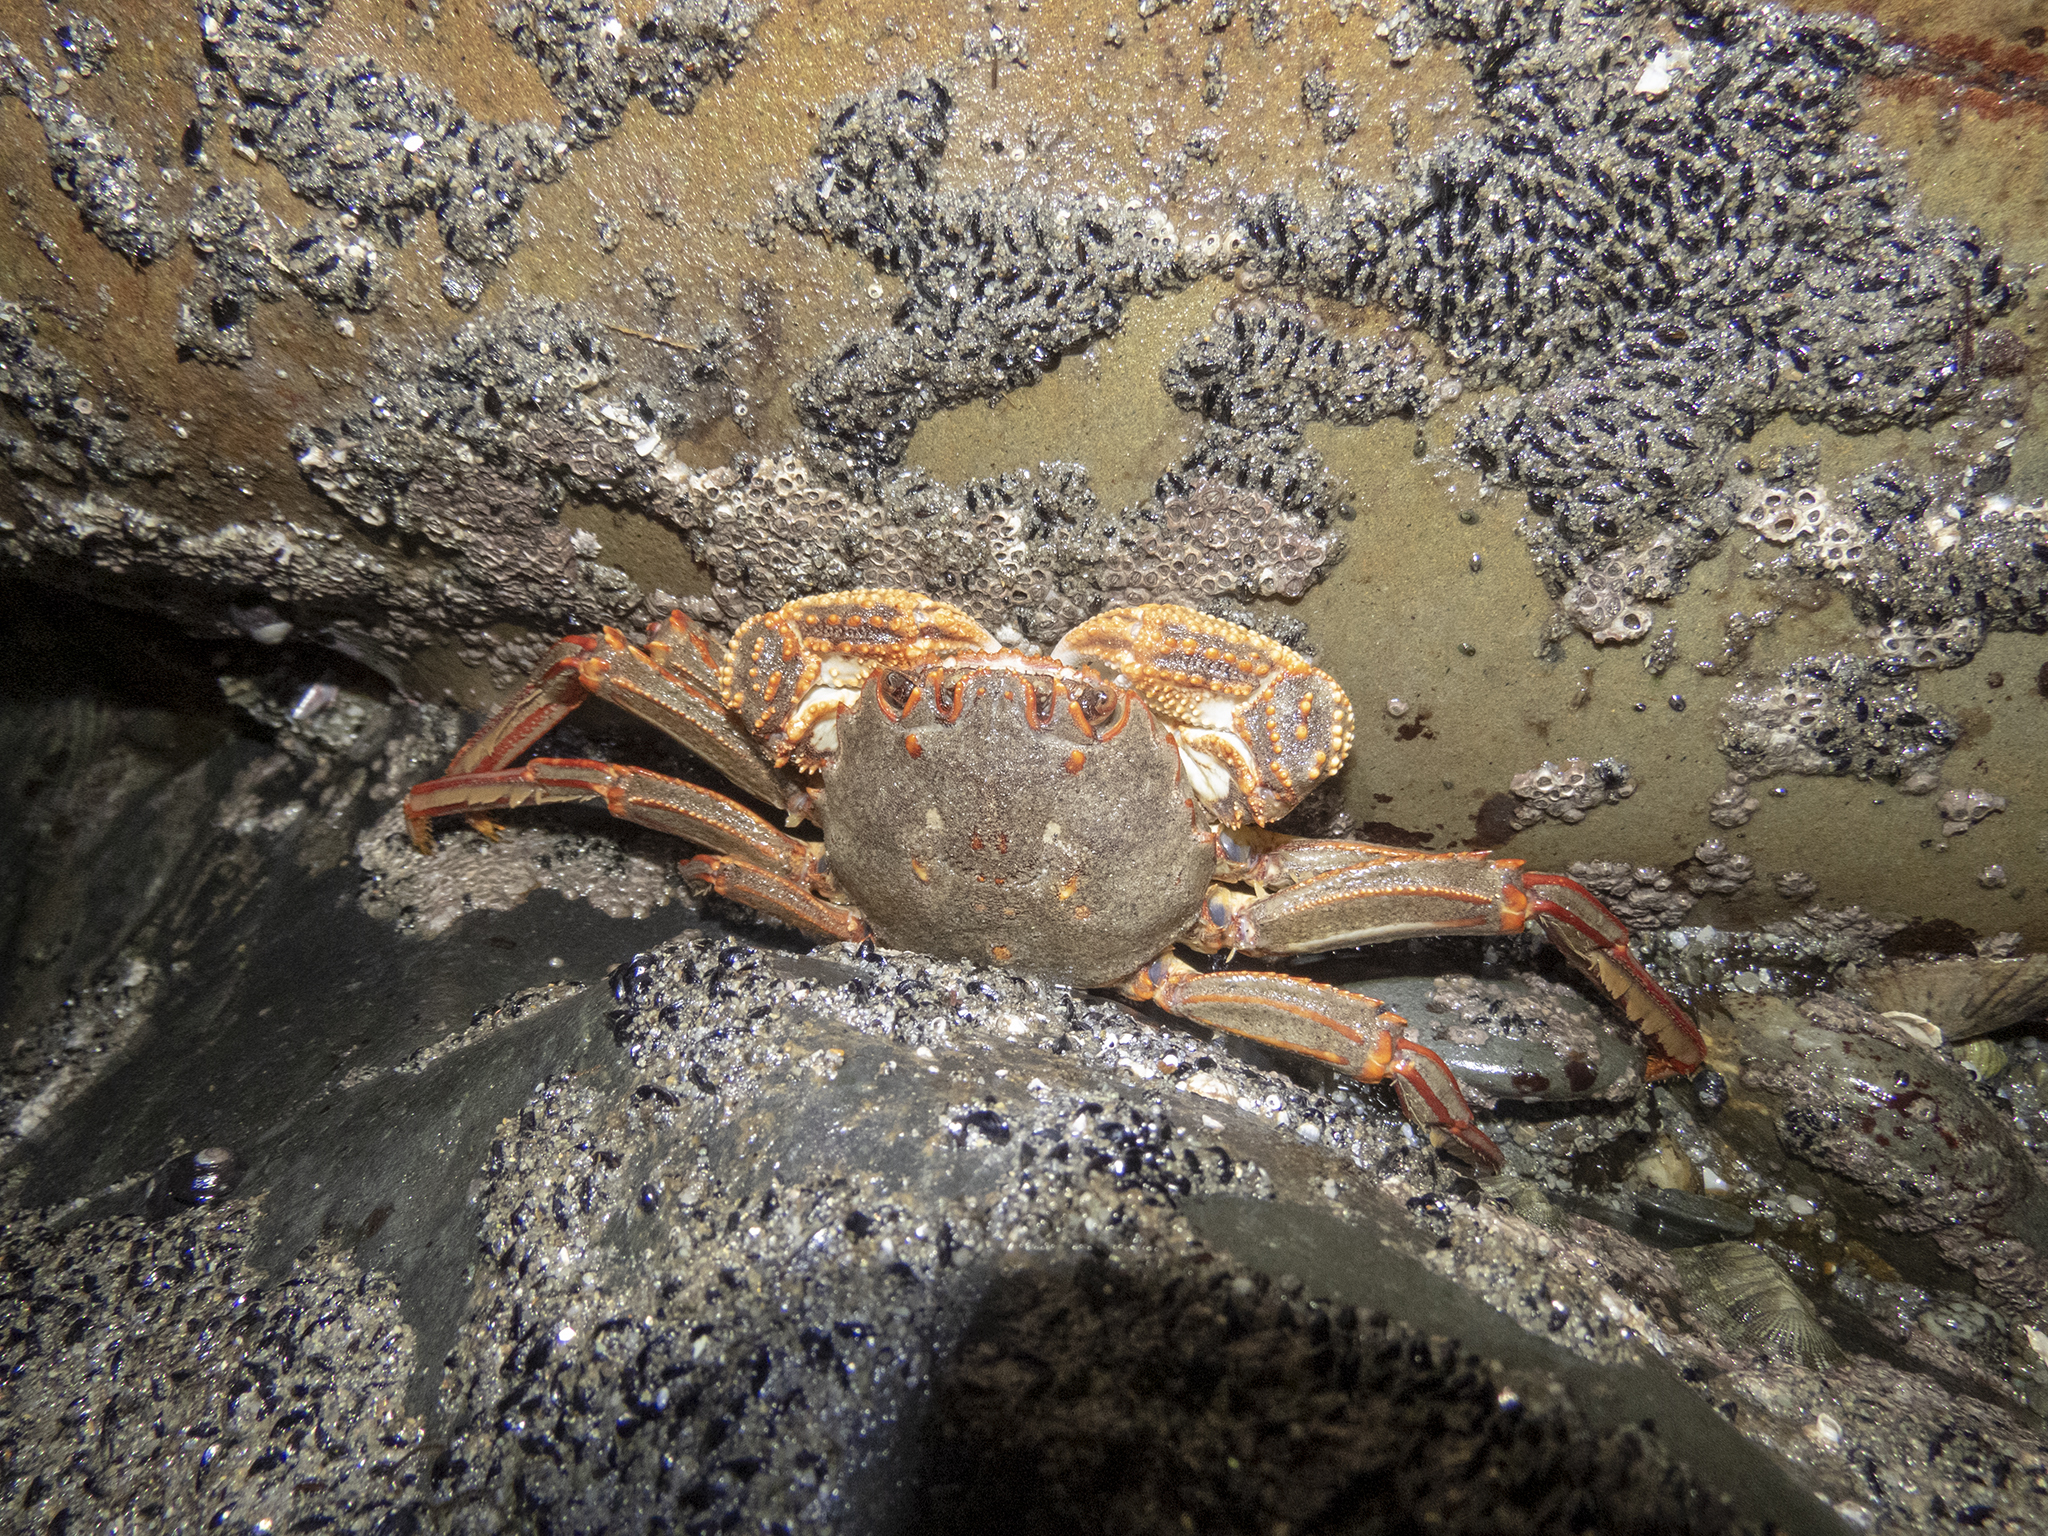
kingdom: Animalia
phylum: Arthropoda
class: Malacostraca
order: Decapoda
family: Plagusiidae
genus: Guinusia
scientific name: Guinusia chabrus
